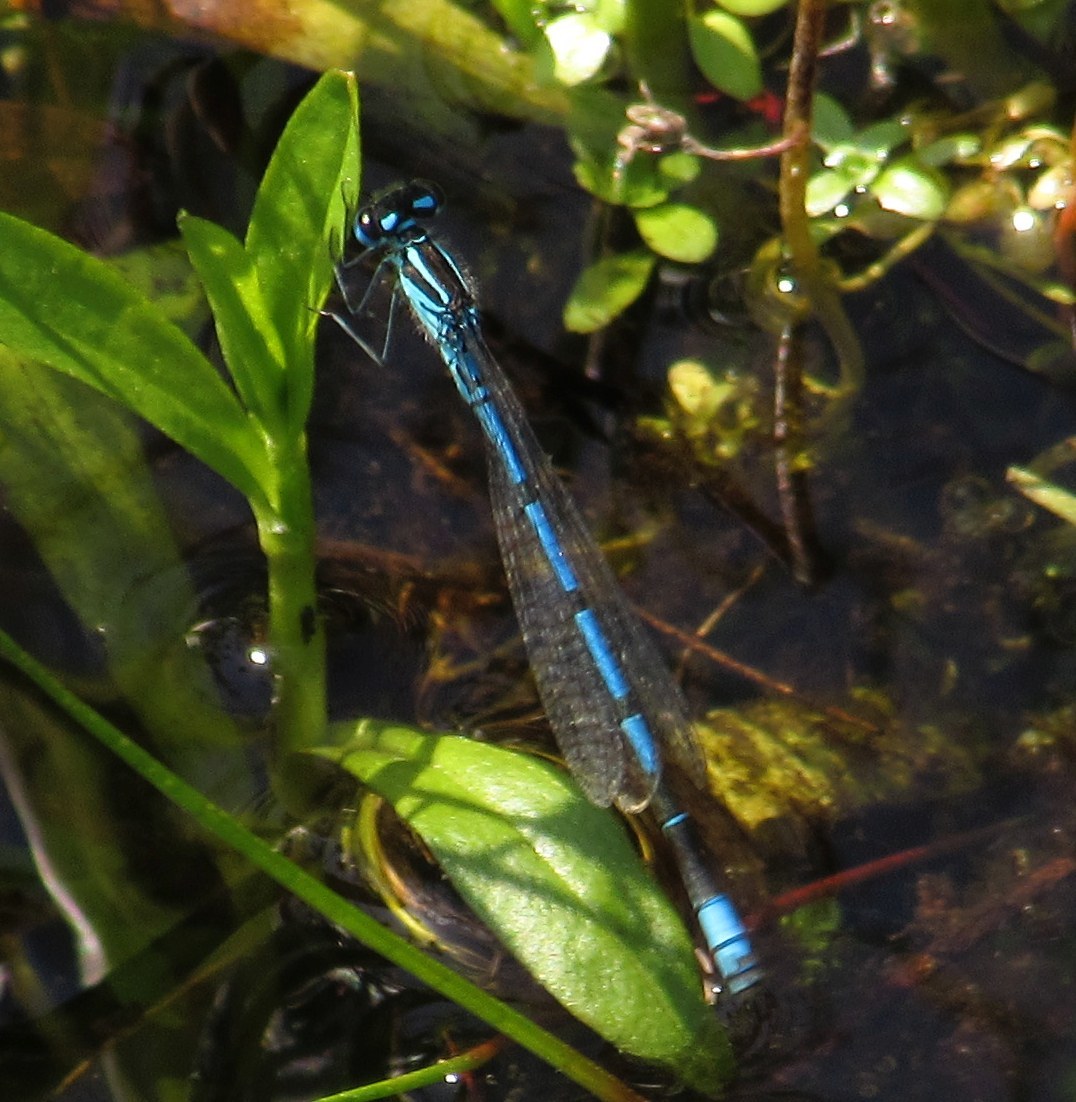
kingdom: Animalia
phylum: Arthropoda
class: Insecta
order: Odonata
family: Coenagrionidae
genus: Coenagrion
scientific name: Coenagrion puella
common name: Azure damselfly
